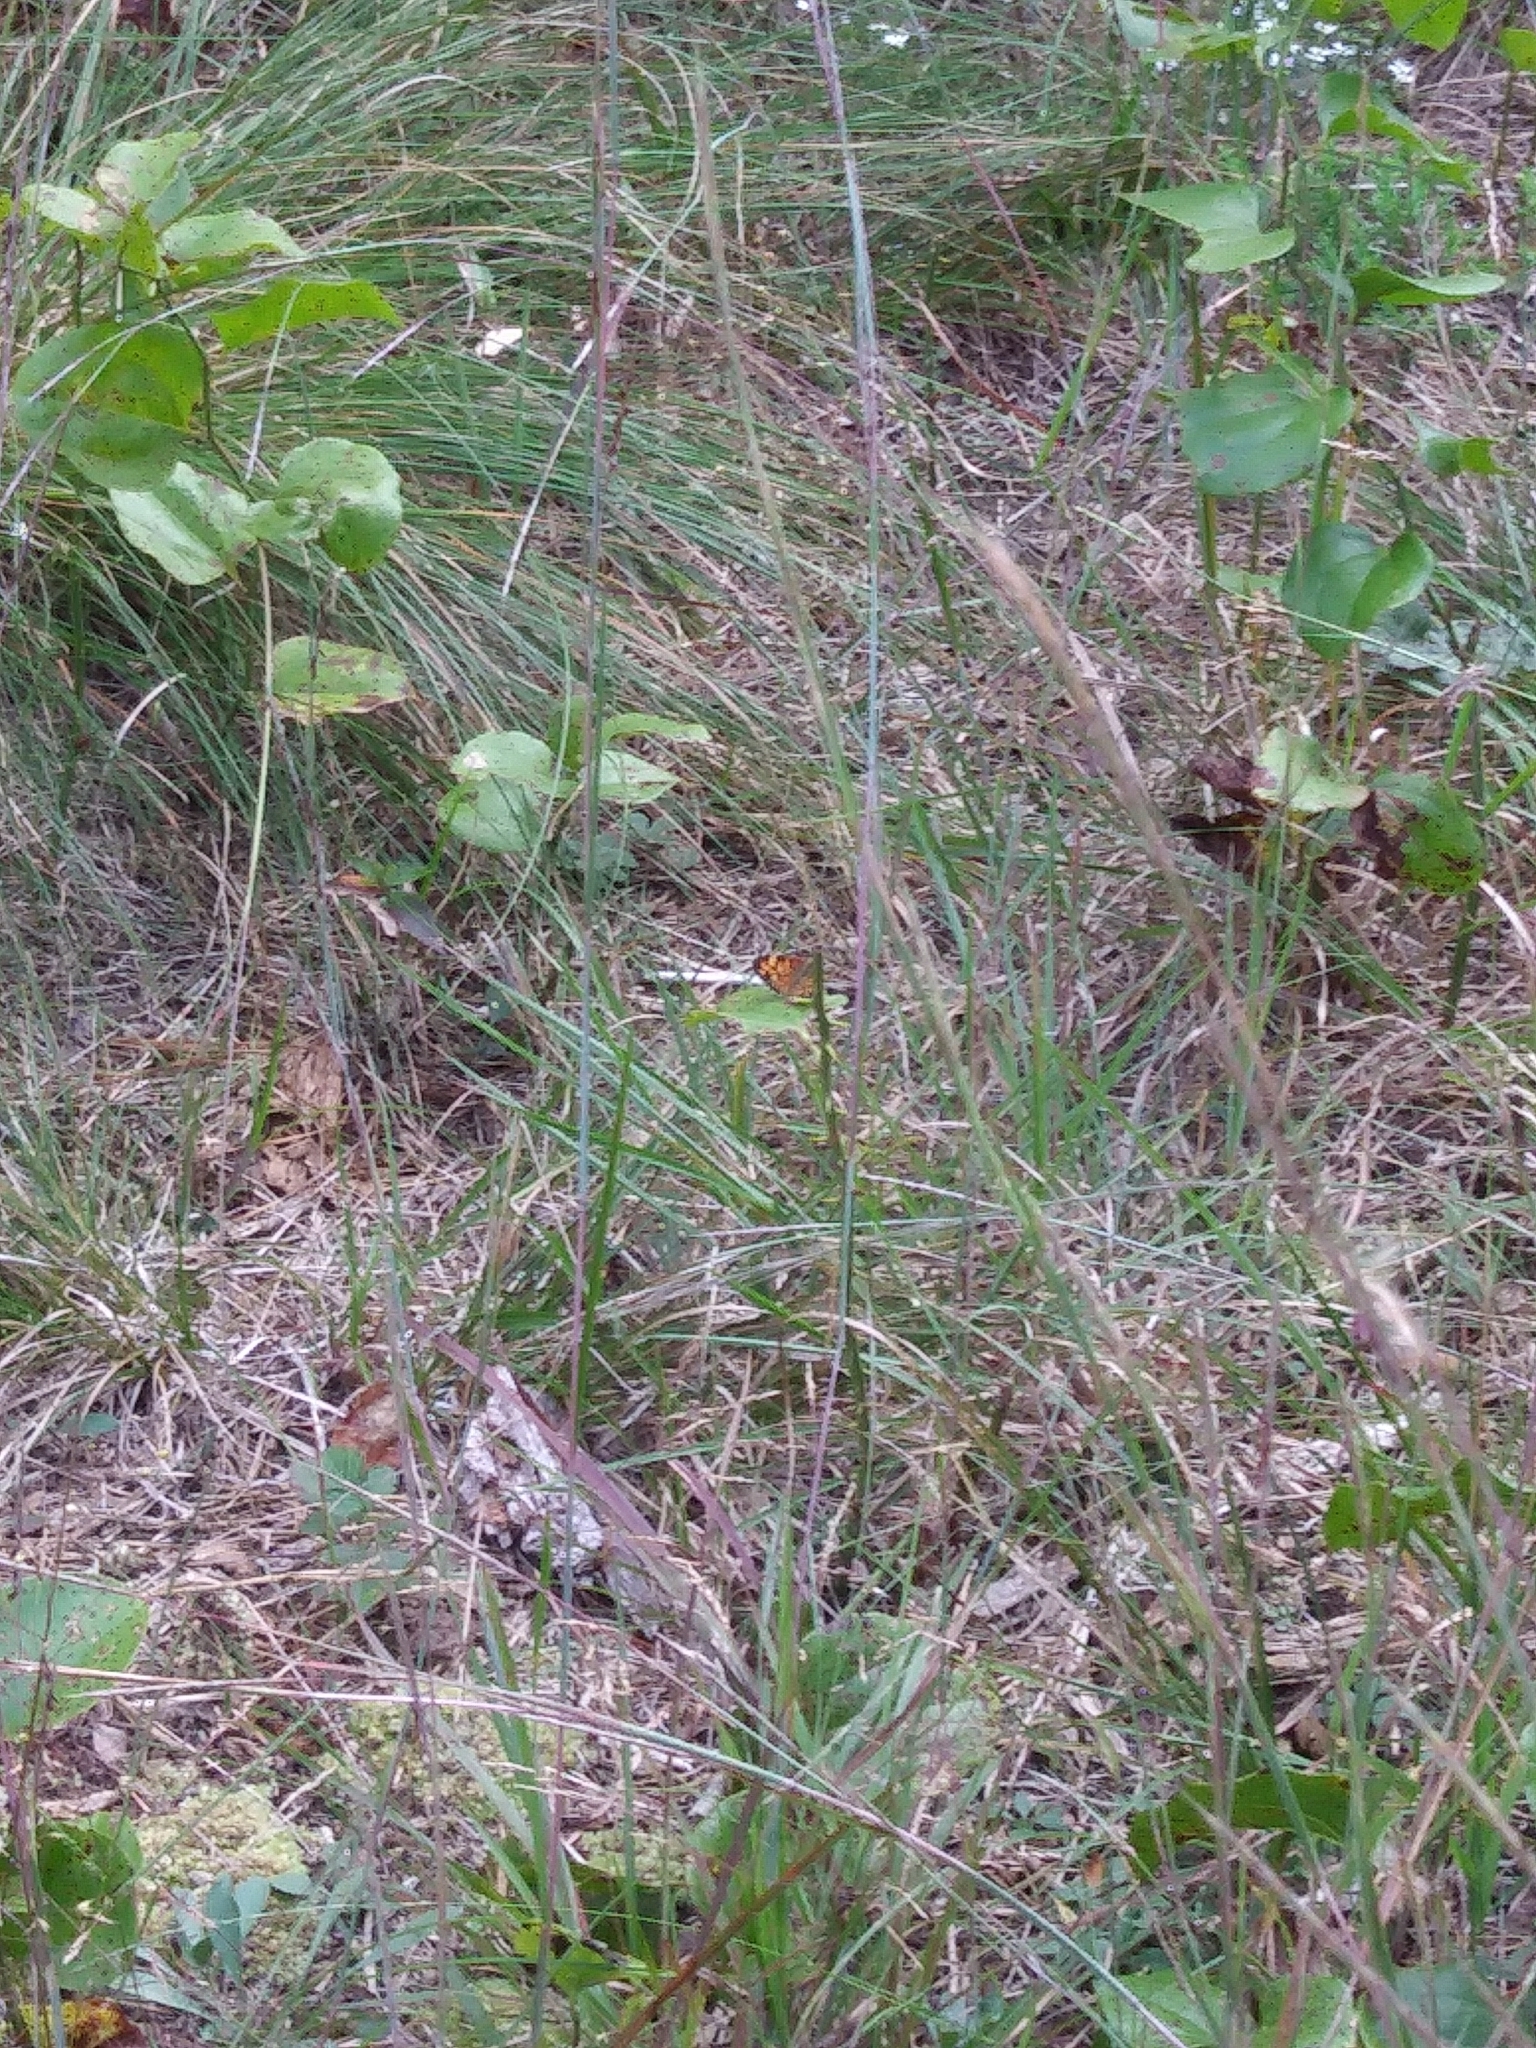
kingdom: Animalia
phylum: Arthropoda
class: Insecta
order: Lepidoptera
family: Nymphalidae
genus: Phyciodes
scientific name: Phyciodes tharos
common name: Pearl crescent
